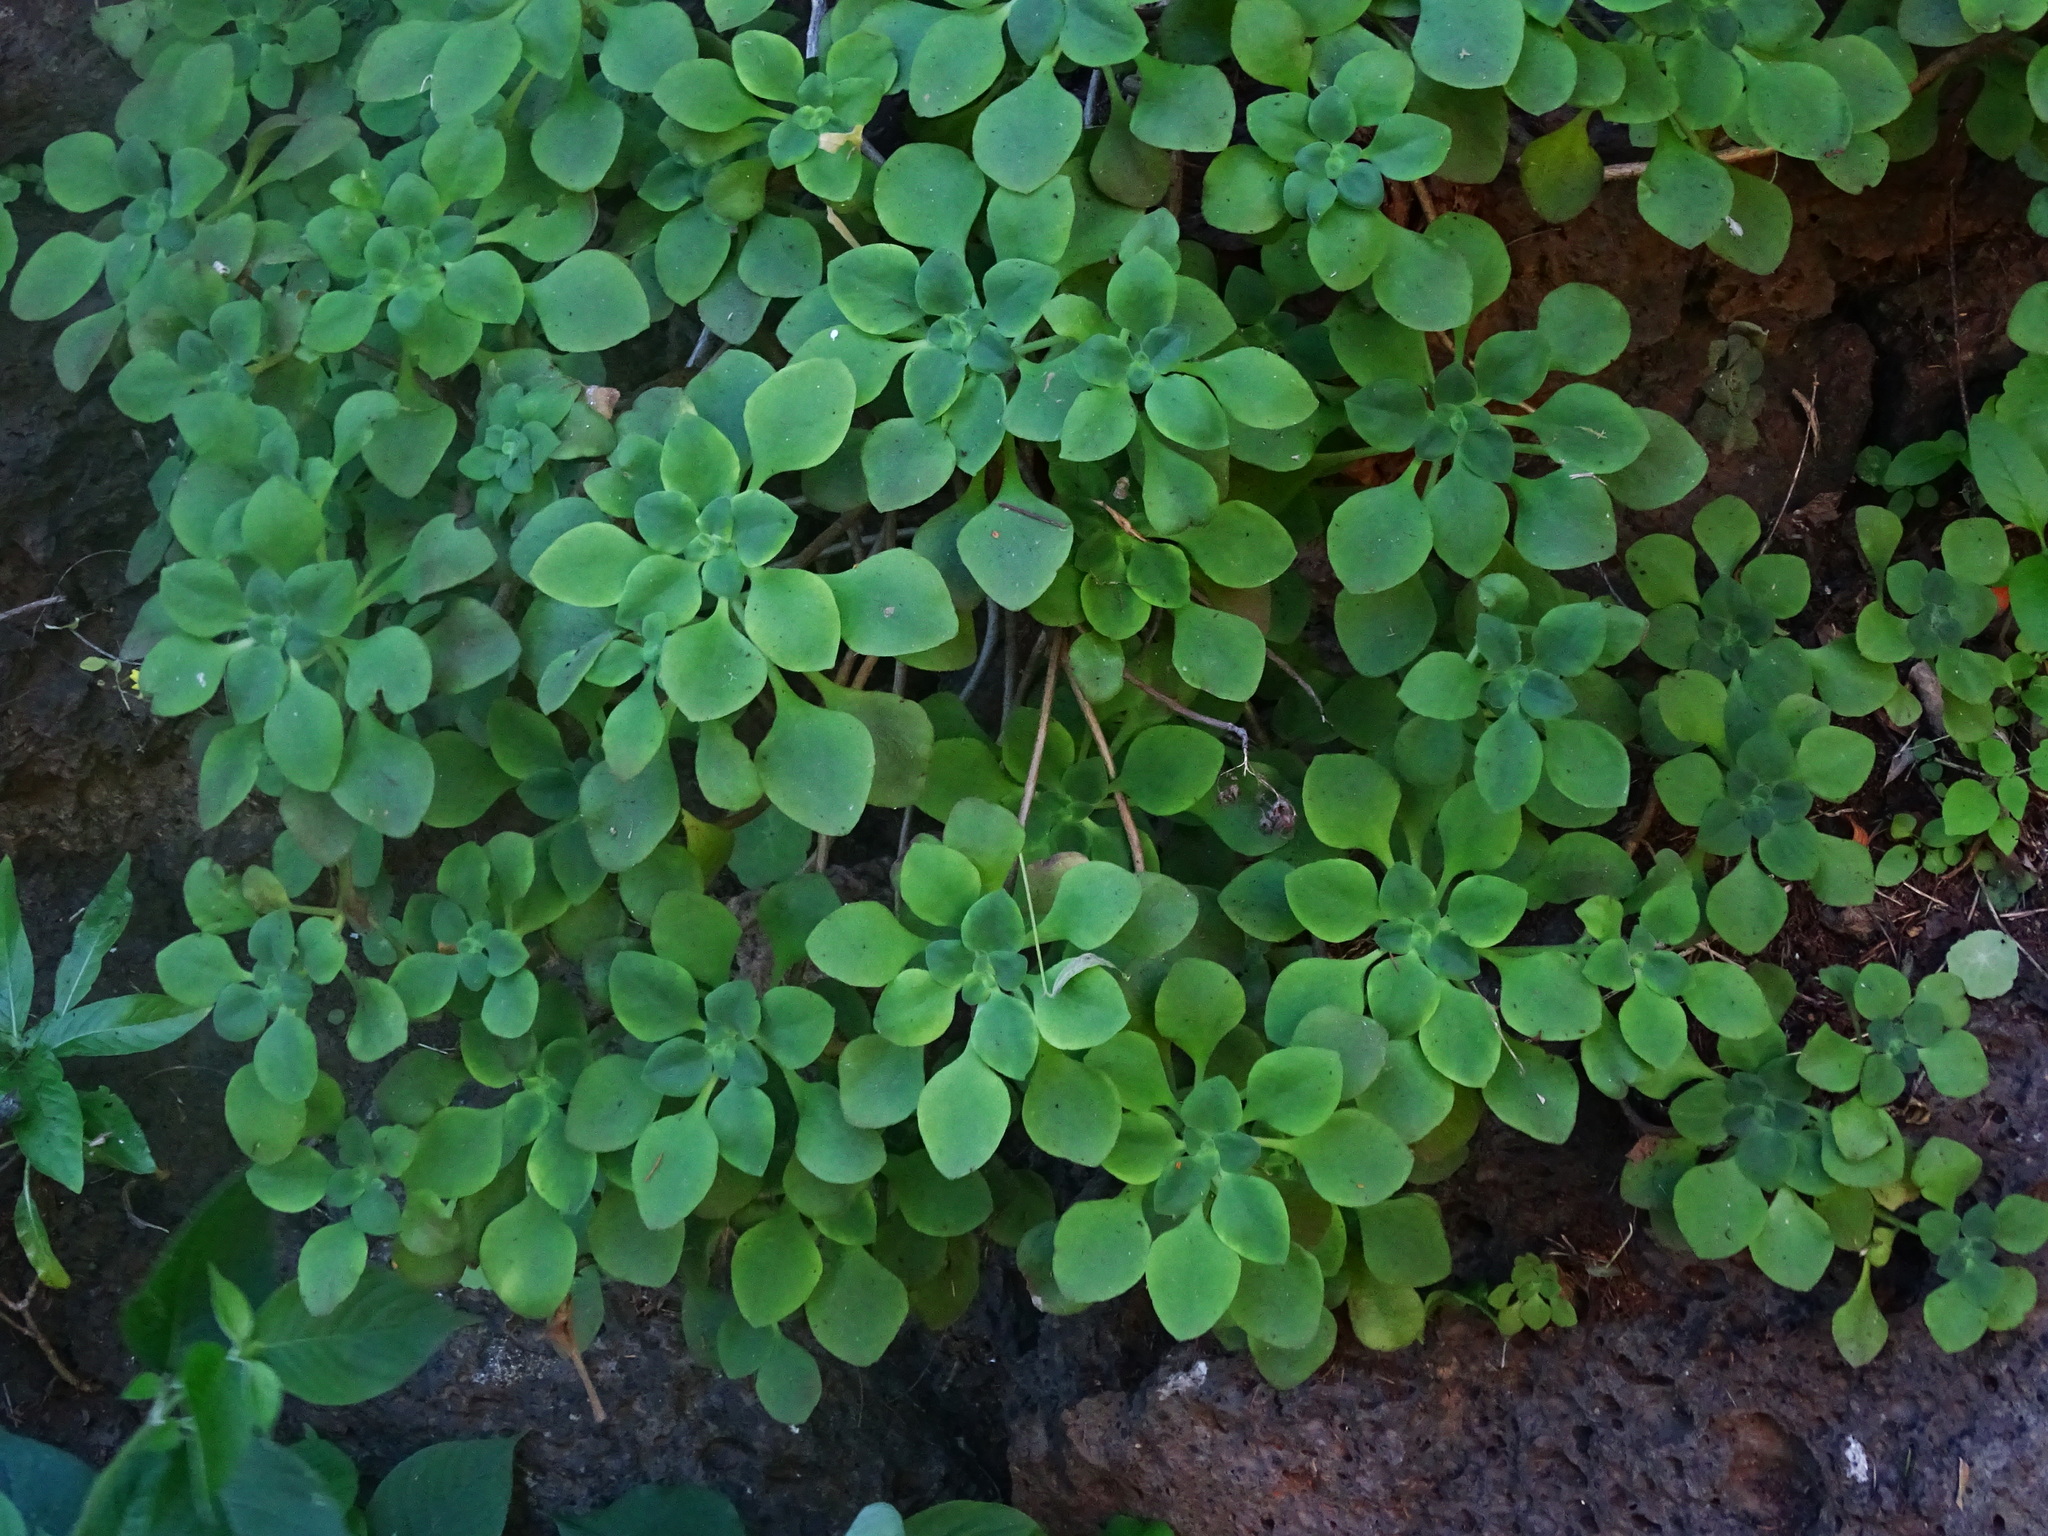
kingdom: Plantae
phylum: Tracheophyta
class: Magnoliopsida
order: Saxifragales
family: Crassulaceae
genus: Aeonium
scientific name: Aeonium goochiae
